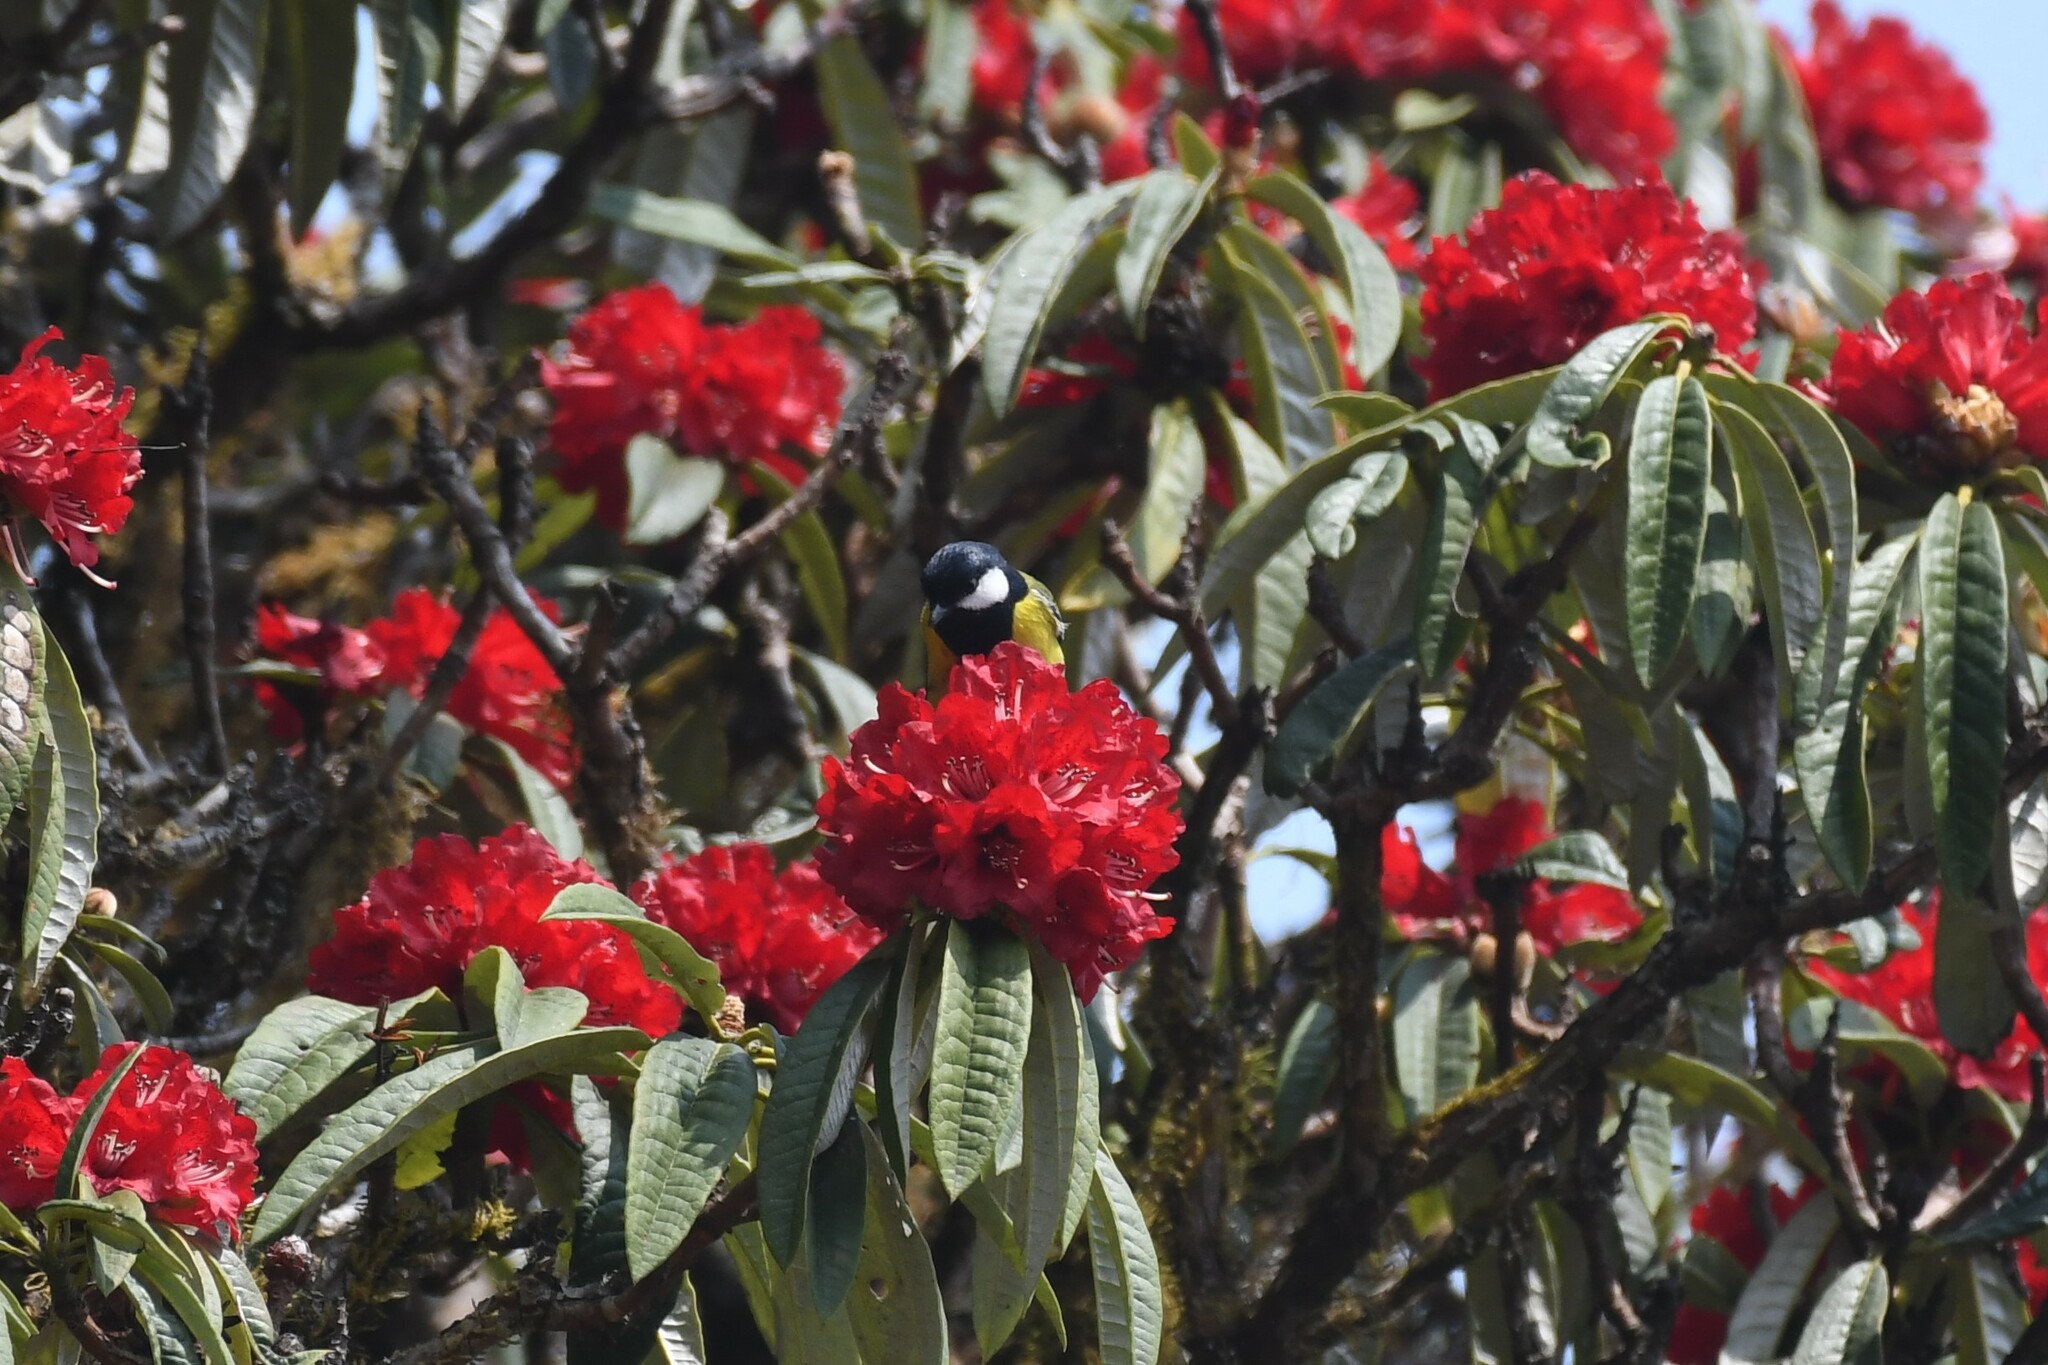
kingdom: Animalia
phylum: Chordata
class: Aves
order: Passeriformes
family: Paridae
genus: Parus
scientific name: Parus monticolus
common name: Green-backed tit
